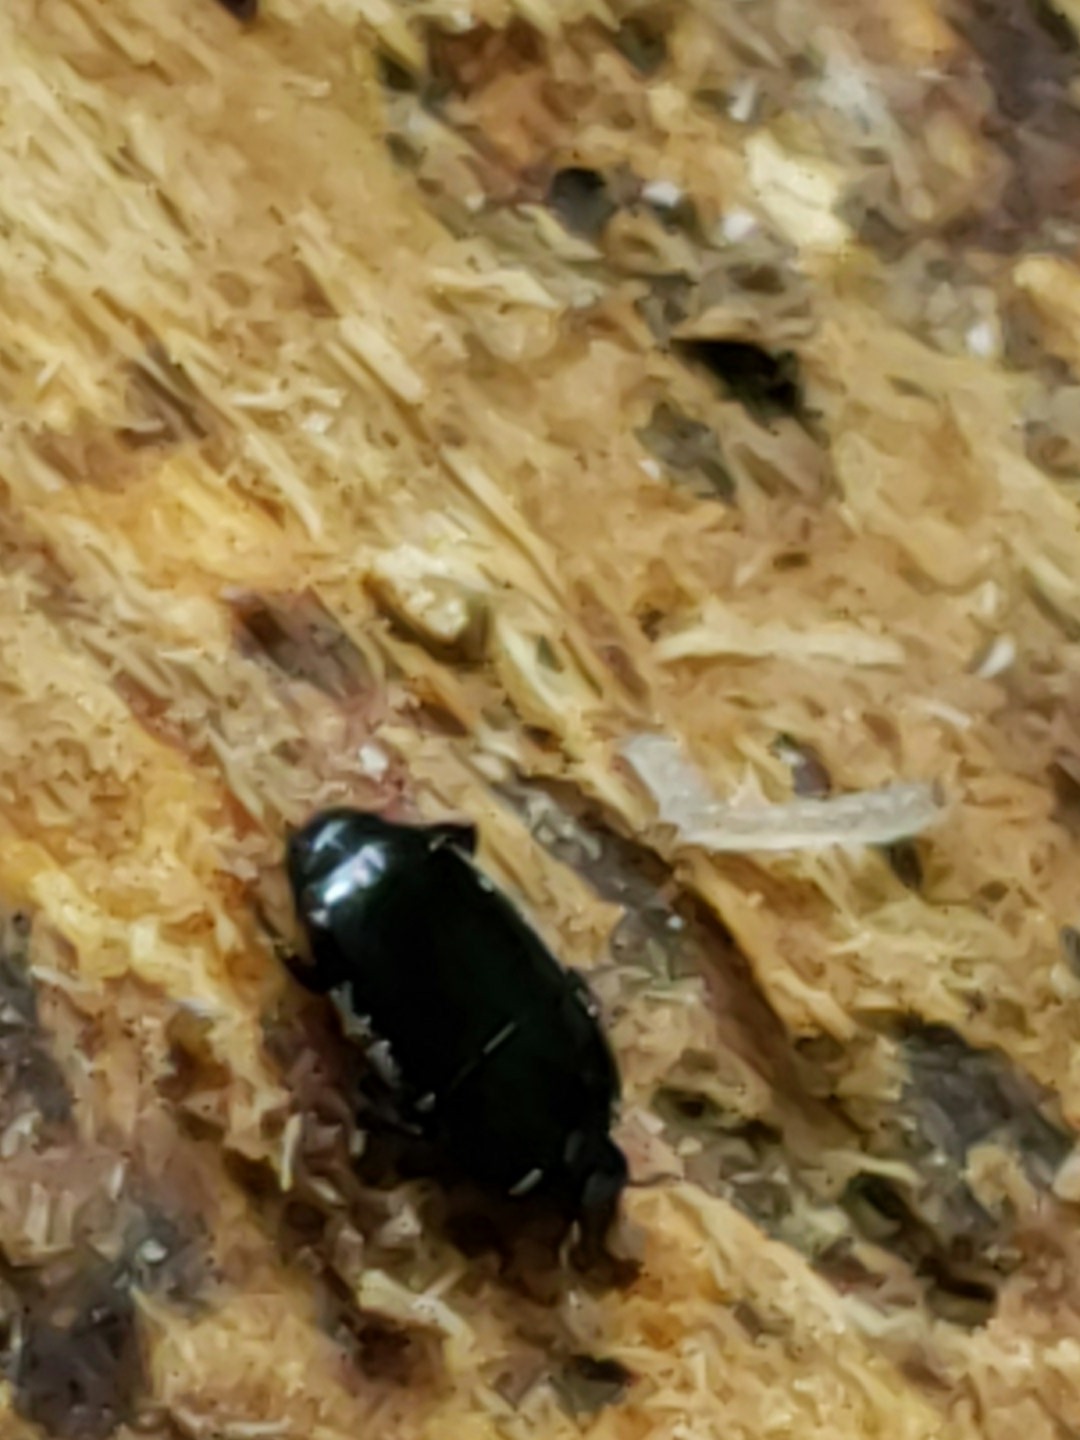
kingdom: Animalia
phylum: Arthropoda
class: Insecta
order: Coleoptera
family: Histeridae
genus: Platylomalus
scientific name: Platylomalus aequalis
